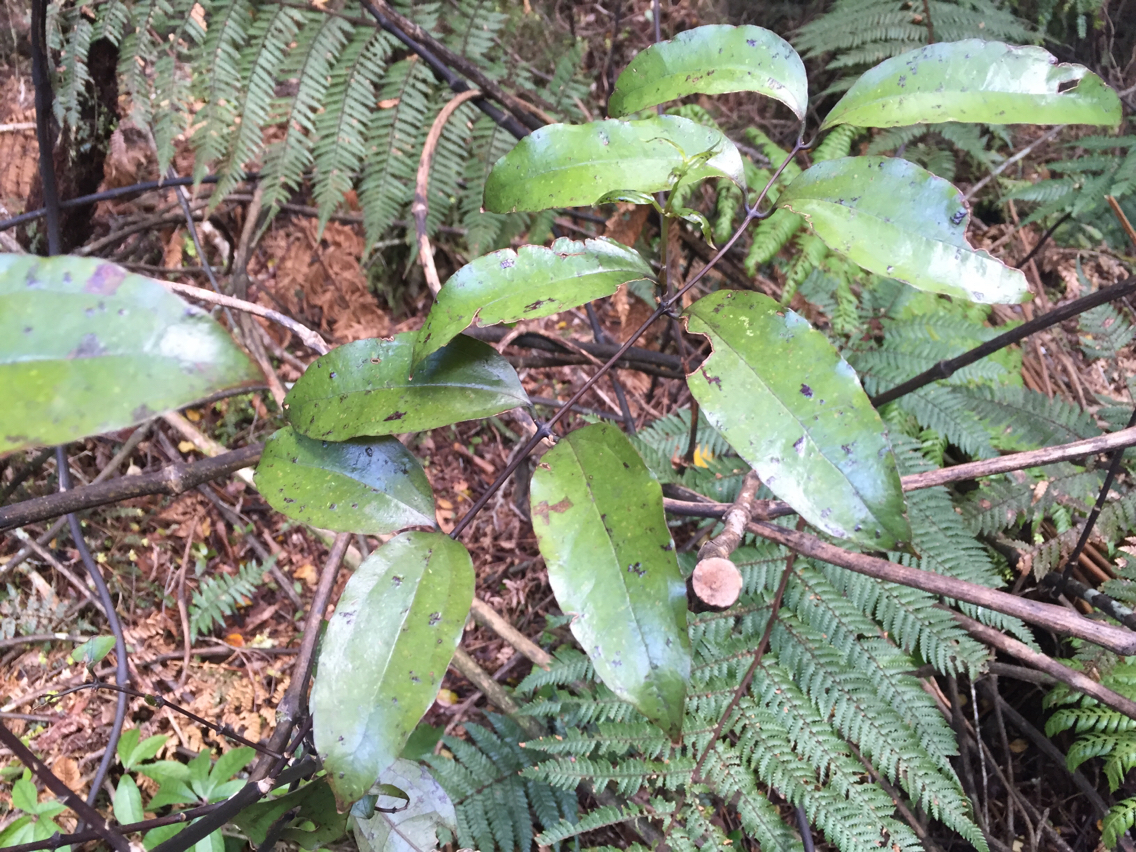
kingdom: Plantae
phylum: Tracheophyta
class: Liliopsida
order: Liliales
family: Ripogonaceae
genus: Ripogonum
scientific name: Ripogonum scandens
